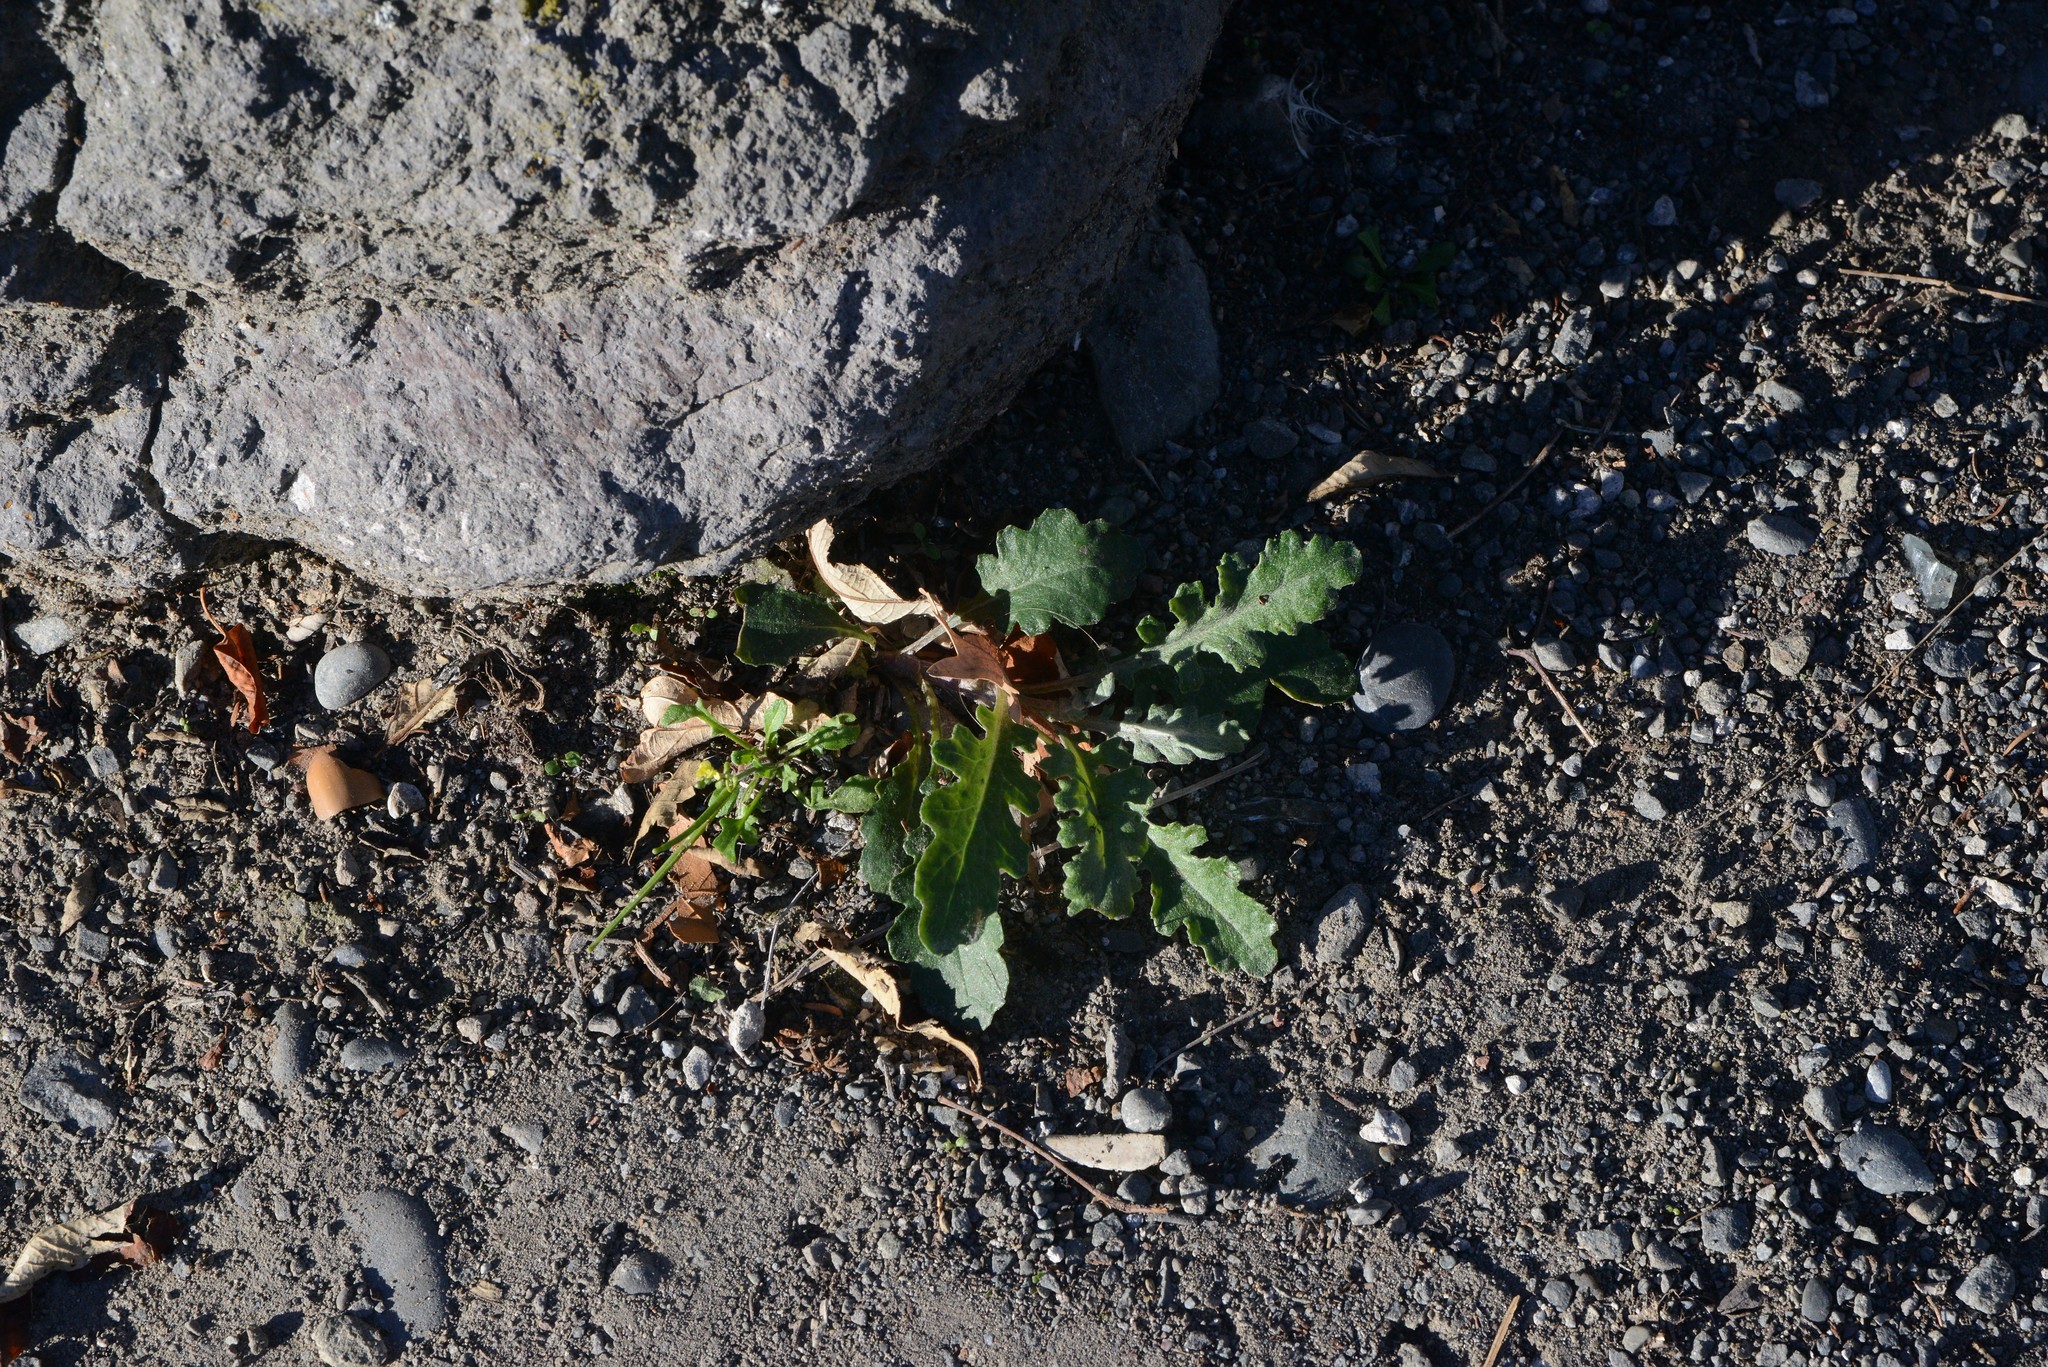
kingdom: Plantae
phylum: Tracheophyta
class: Magnoliopsida
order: Asterales
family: Asteraceae
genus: Senecio
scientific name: Senecio glomeratus
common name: Cutleaf burnweed
